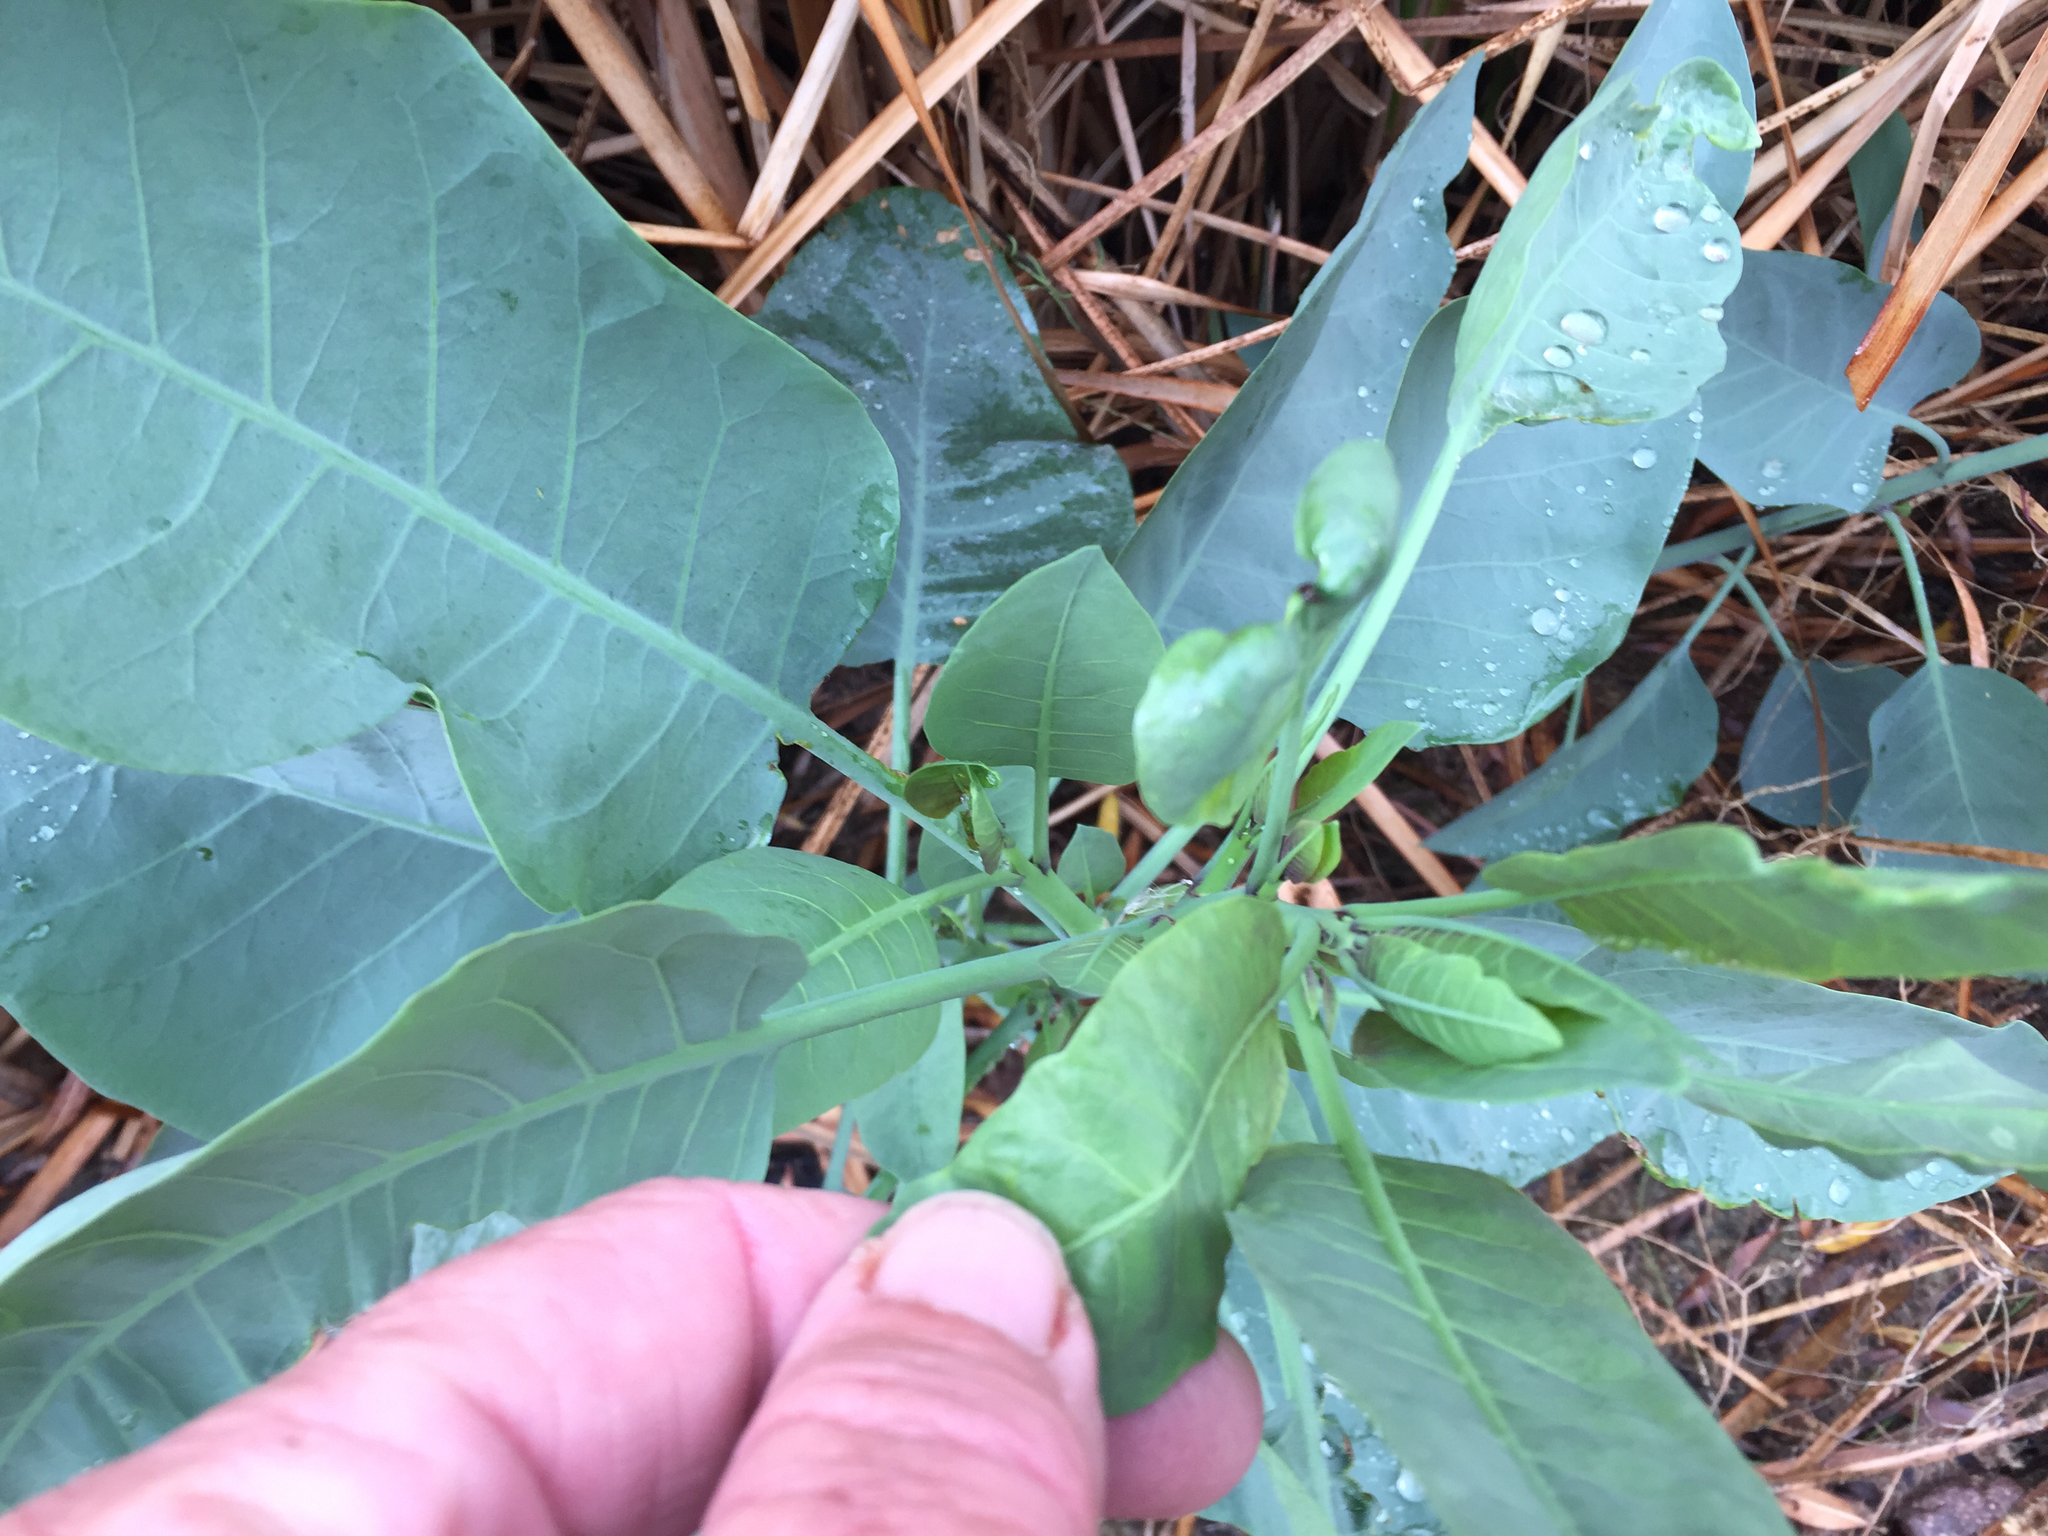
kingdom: Plantae
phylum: Tracheophyta
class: Magnoliopsida
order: Solanales
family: Solanaceae
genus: Nicotiana
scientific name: Nicotiana glauca
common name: Tree tobacco
